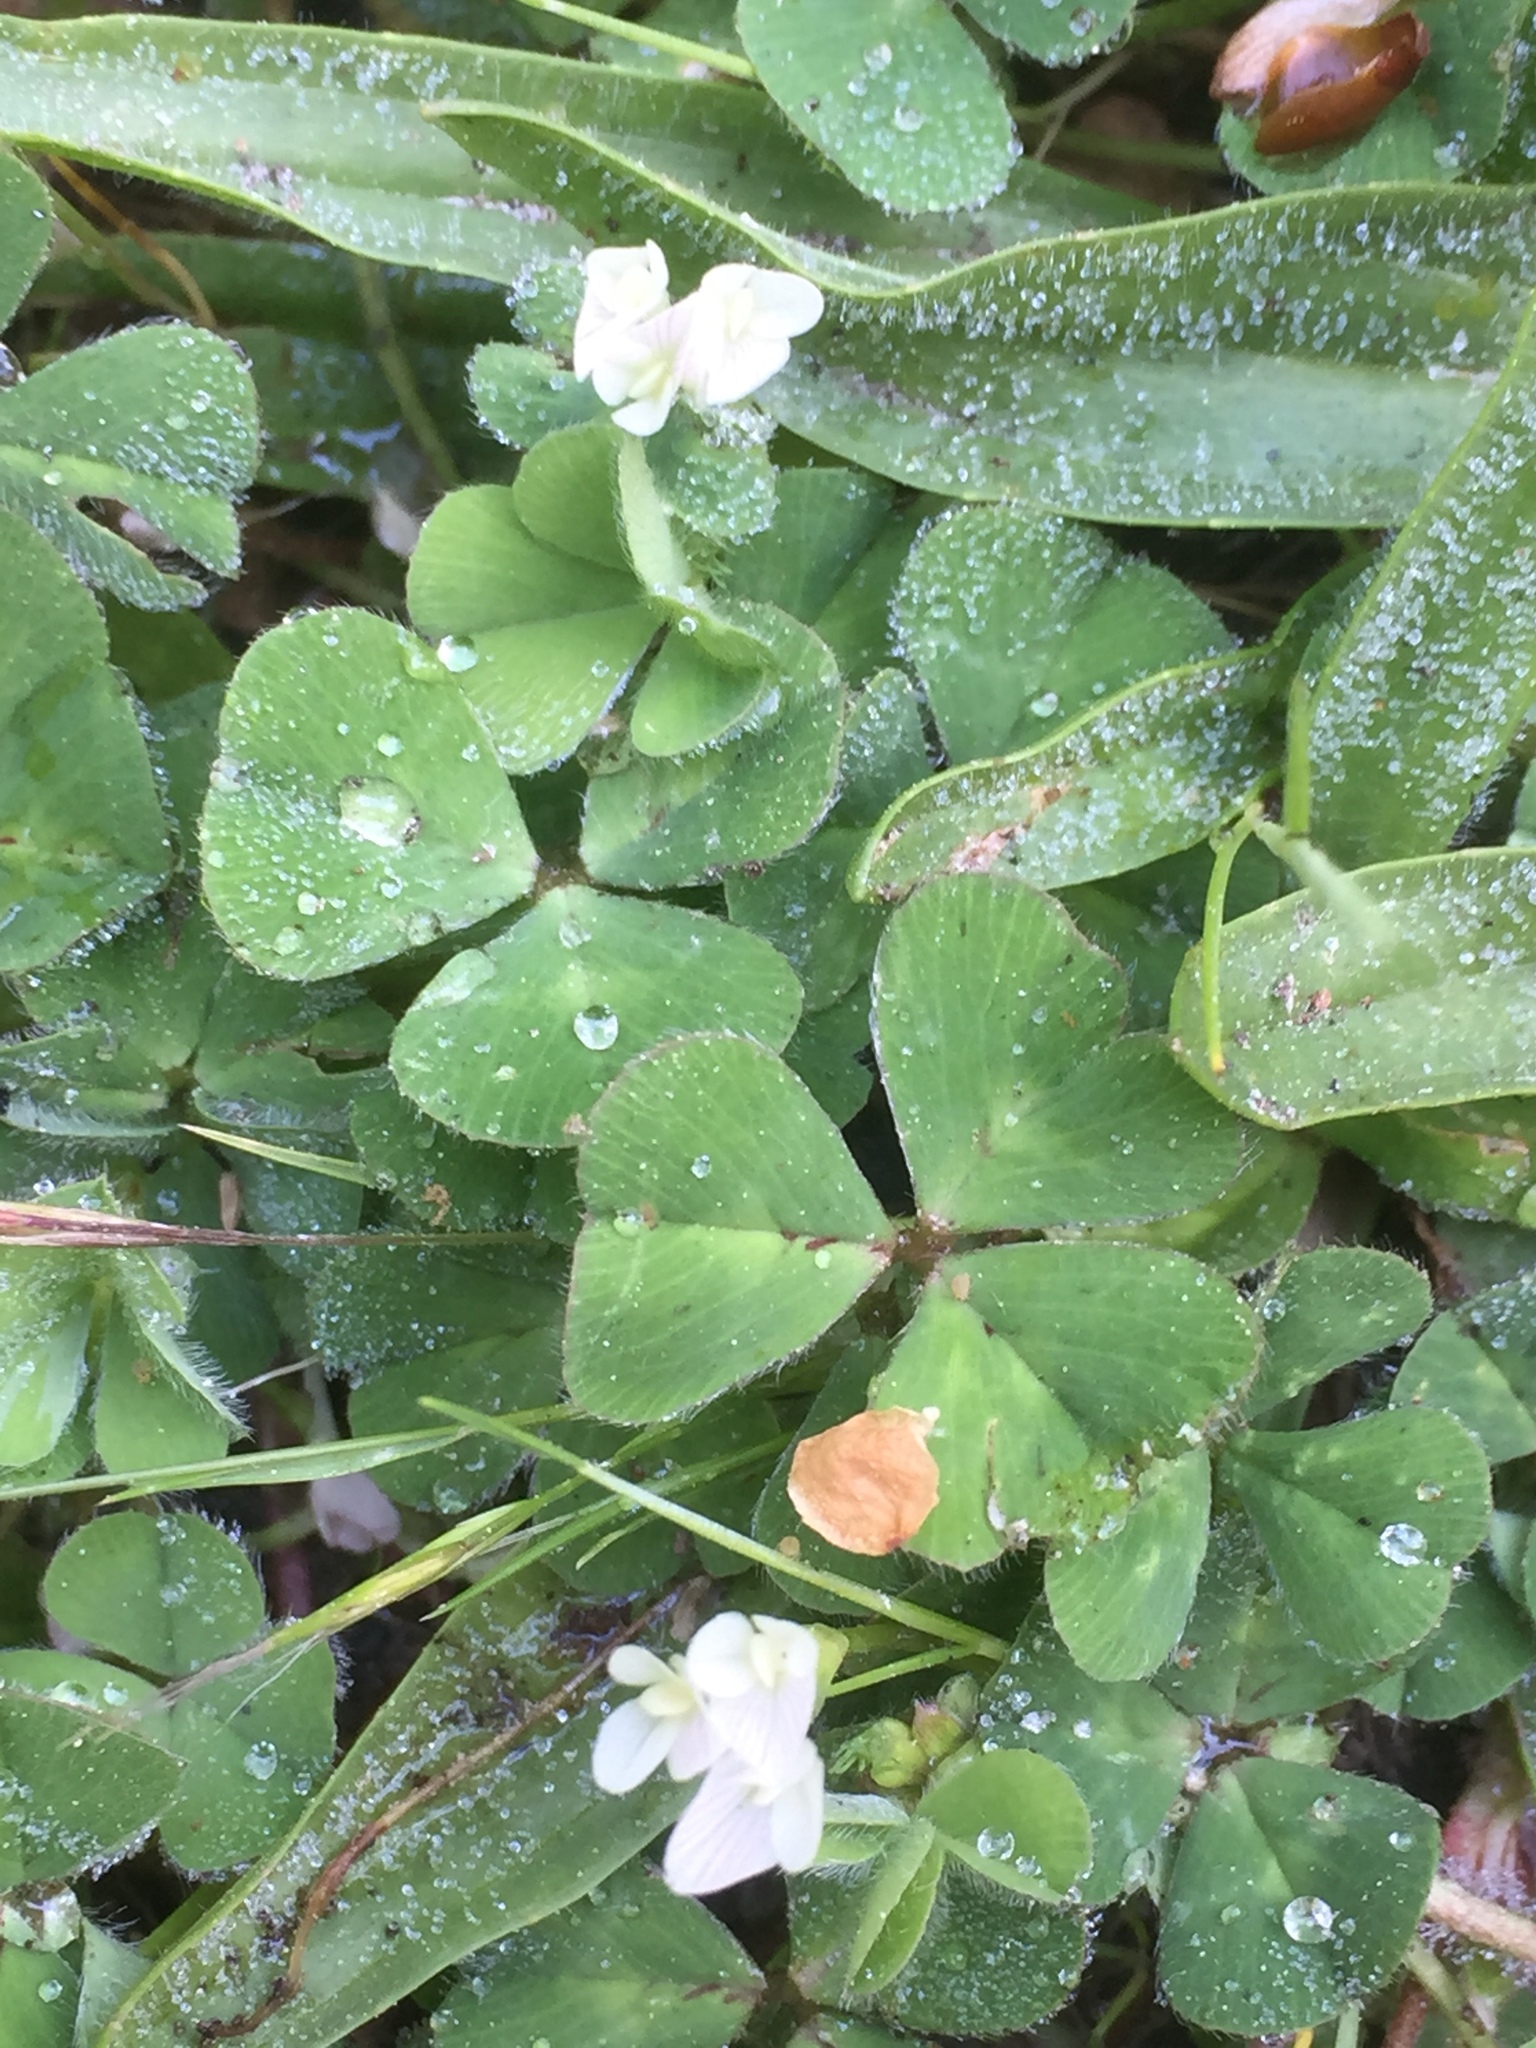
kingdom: Plantae
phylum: Tracheophyta
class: Magnoliopsida
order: Fabales
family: Fabaceae
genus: Trifolium
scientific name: Trifolium subterraneum
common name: Subterranean clover
